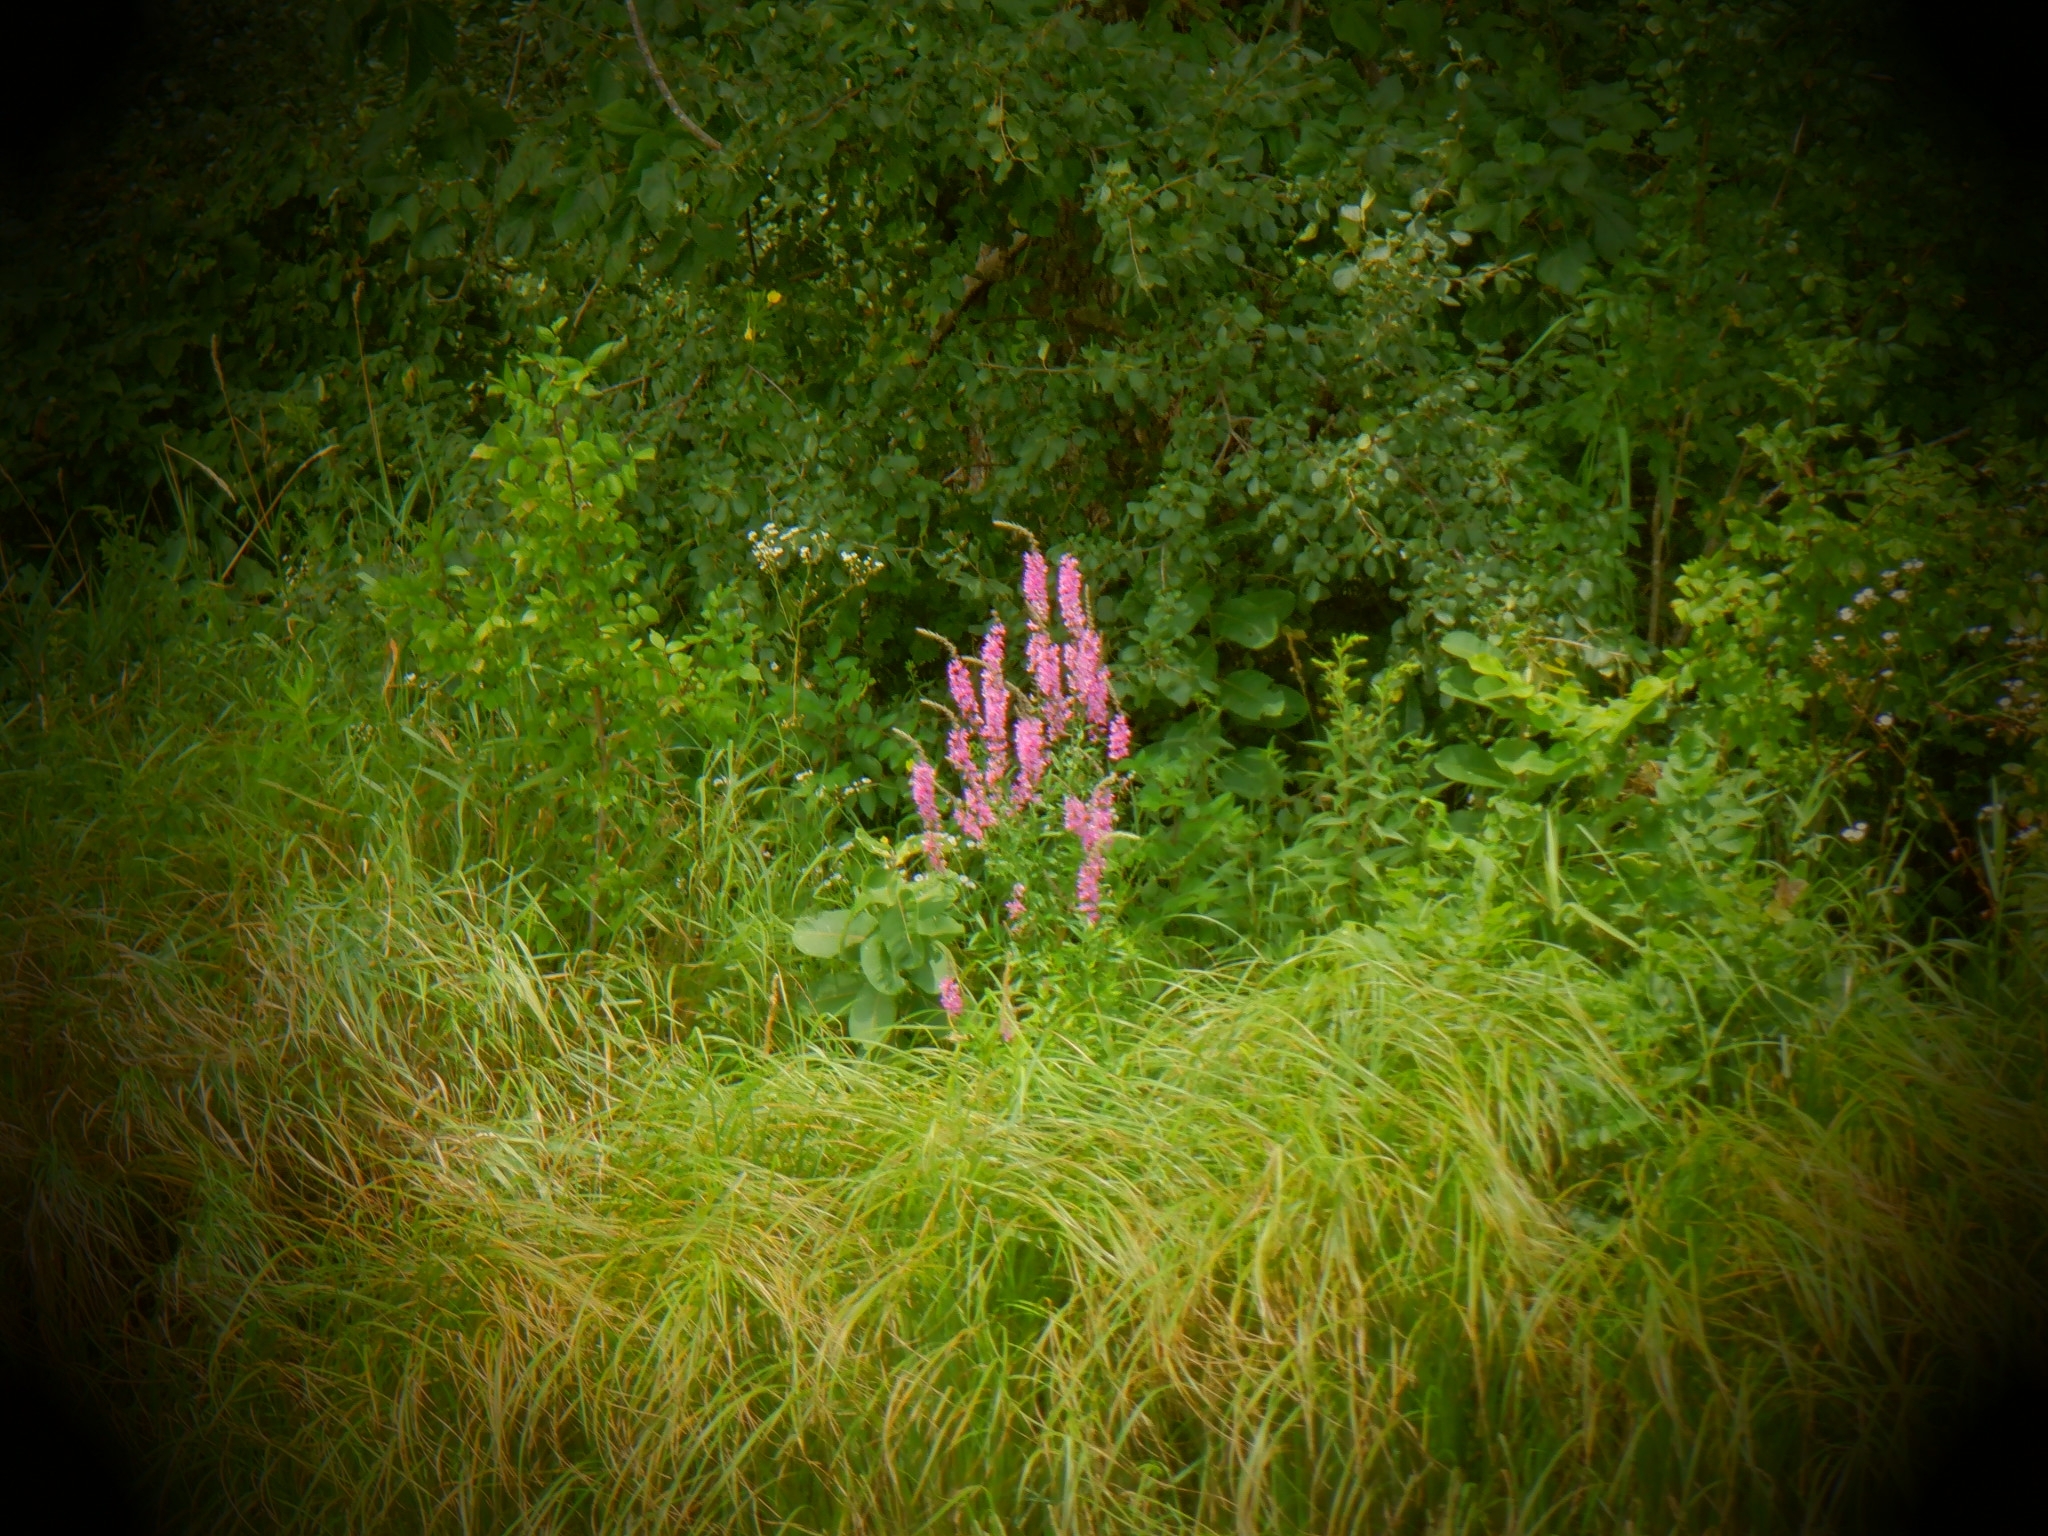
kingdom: Plantae
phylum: Tracheophyta
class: Magnoliopsida
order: Myrtales
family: Lythraceae
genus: Lythrum
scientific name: Lythrum salicaria
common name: Purple loosestrife
